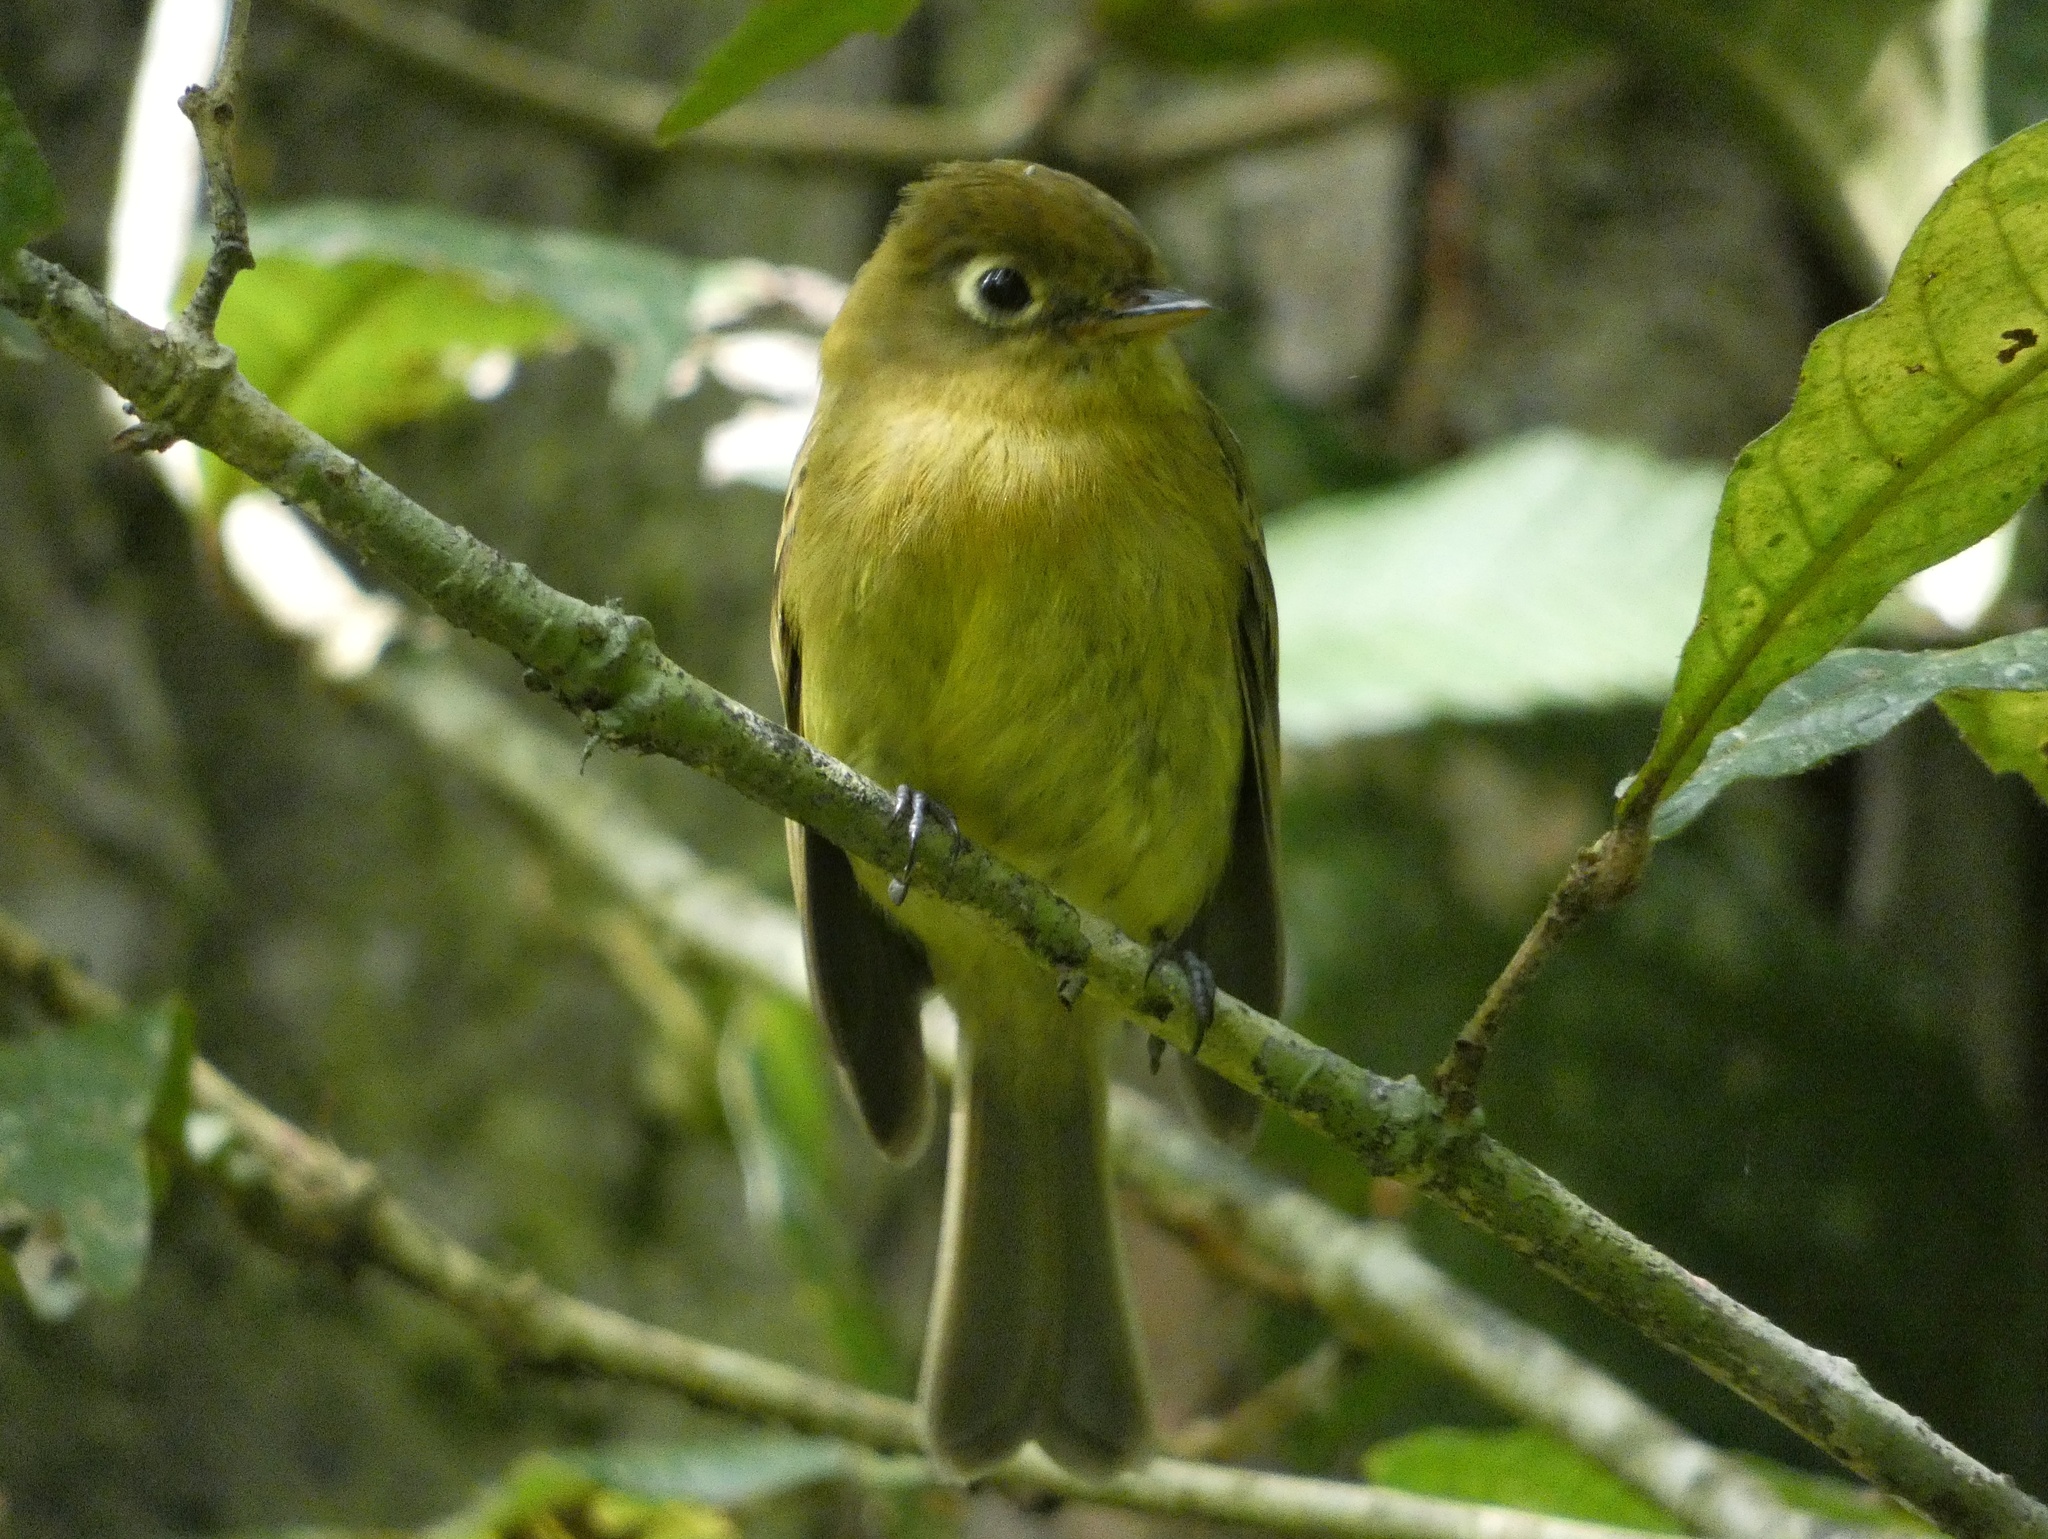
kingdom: Animalia
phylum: Chordata
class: Aves
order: Passeriformes
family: Tyrannidae
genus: Empidonax
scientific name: Empidonax flavescens
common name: Yellowish flycatcher
